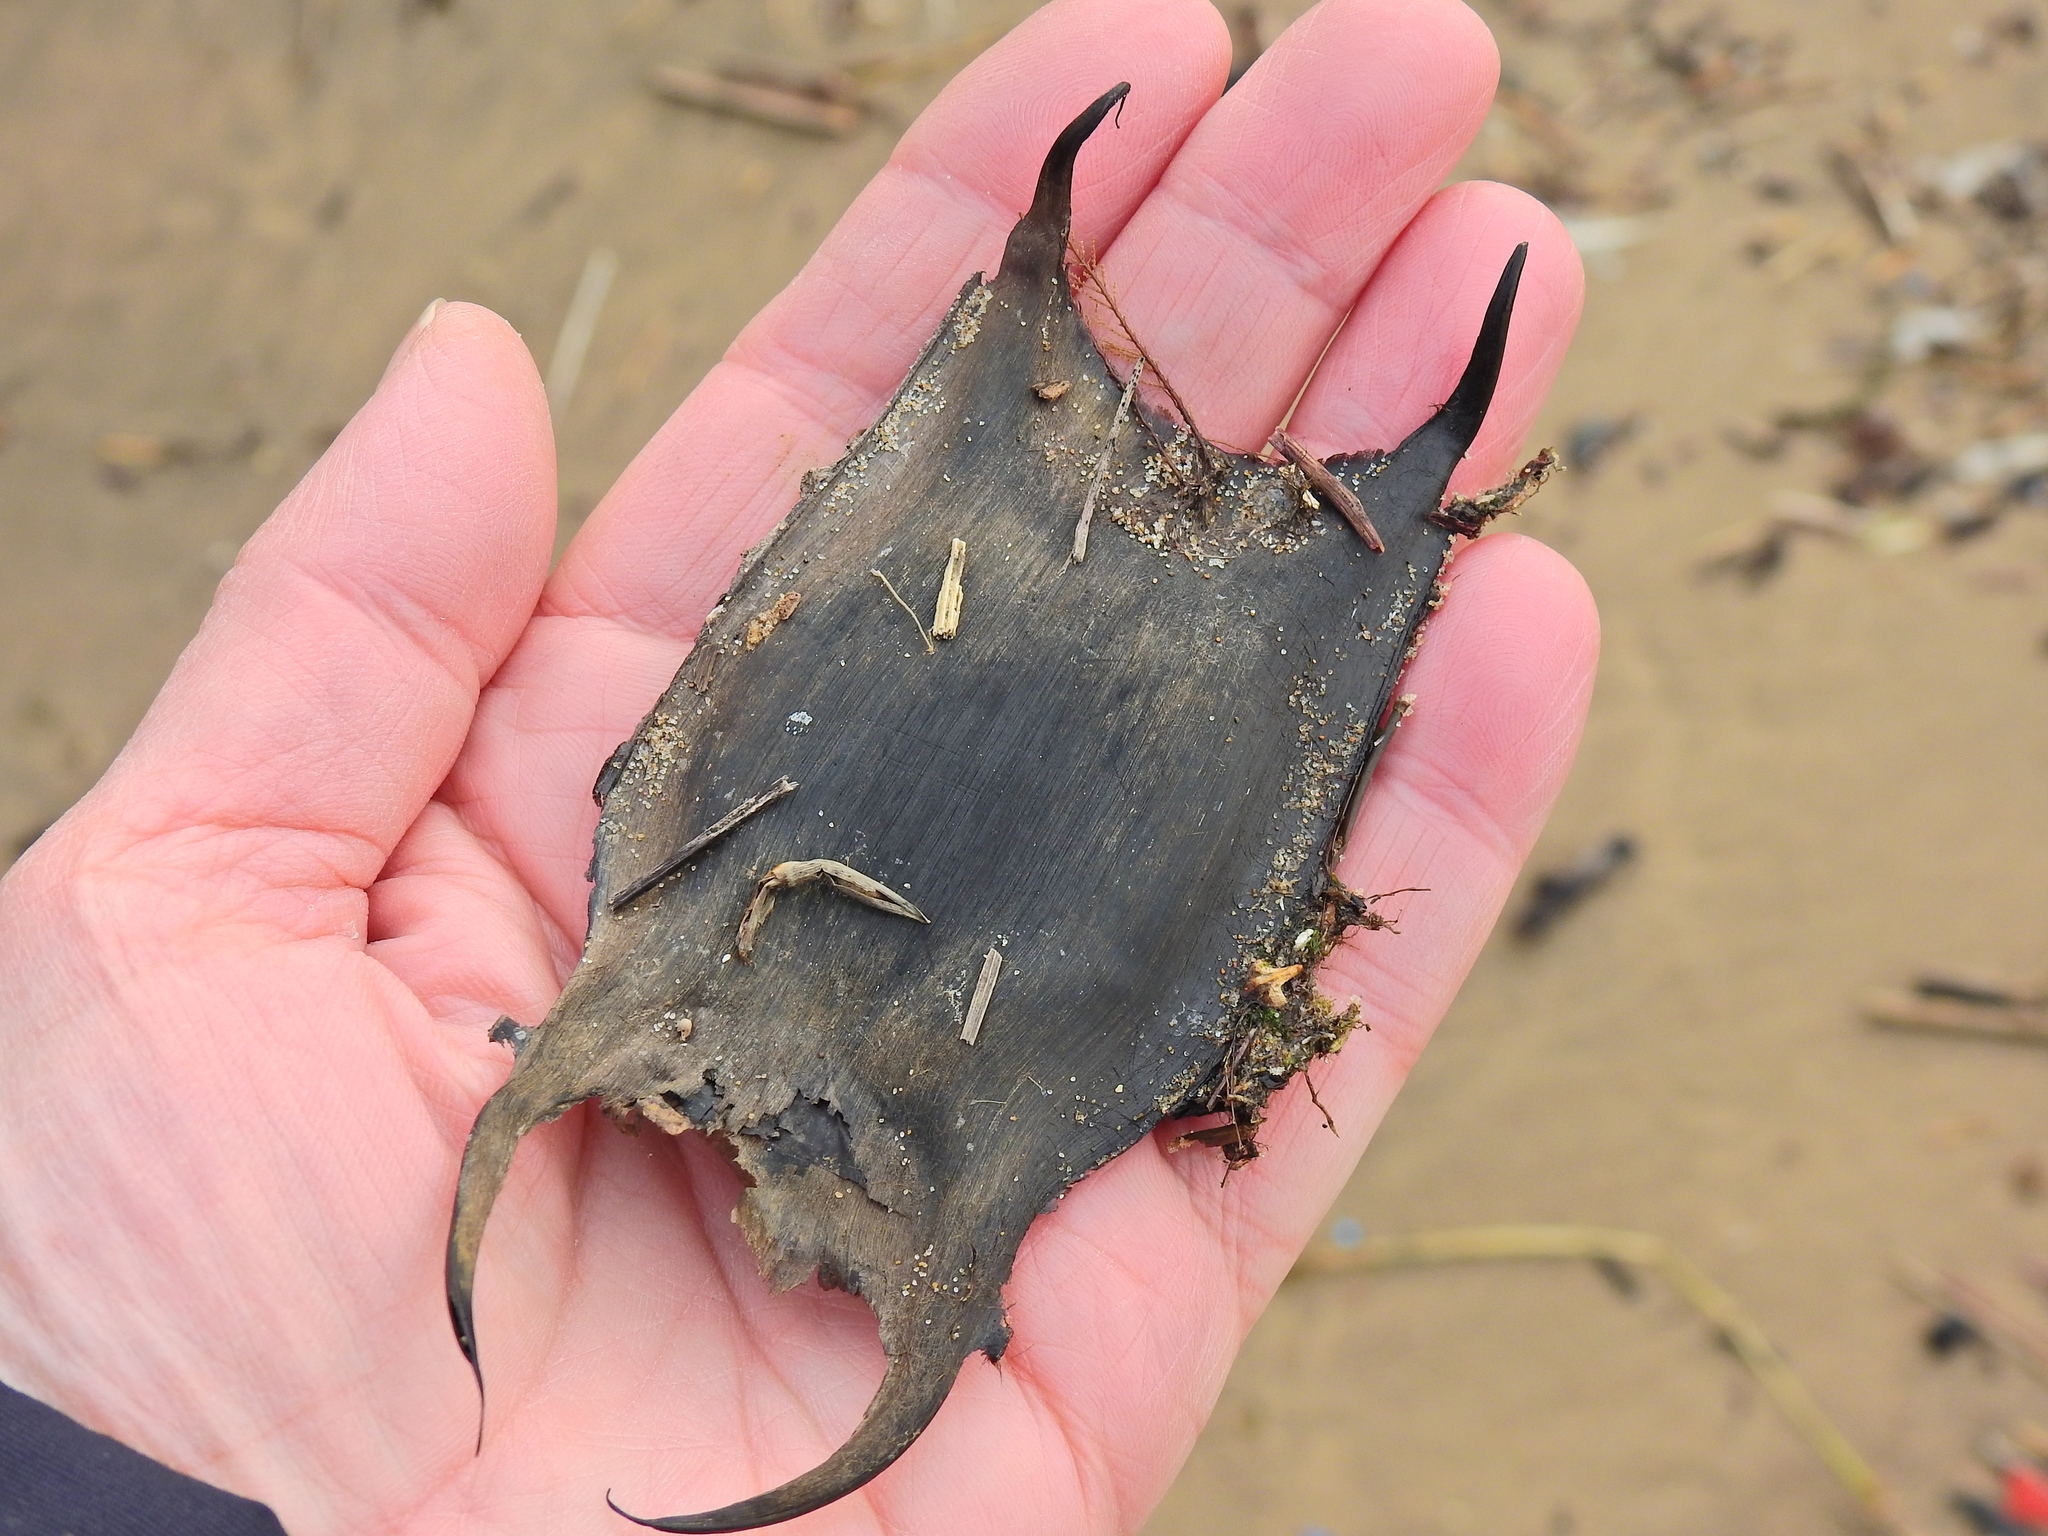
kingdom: Animalia
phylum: Chordata
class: Elasmobranchii
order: Rajiformes
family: Rajidae
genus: Raja
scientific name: Raja clavata
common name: Thornback ray
